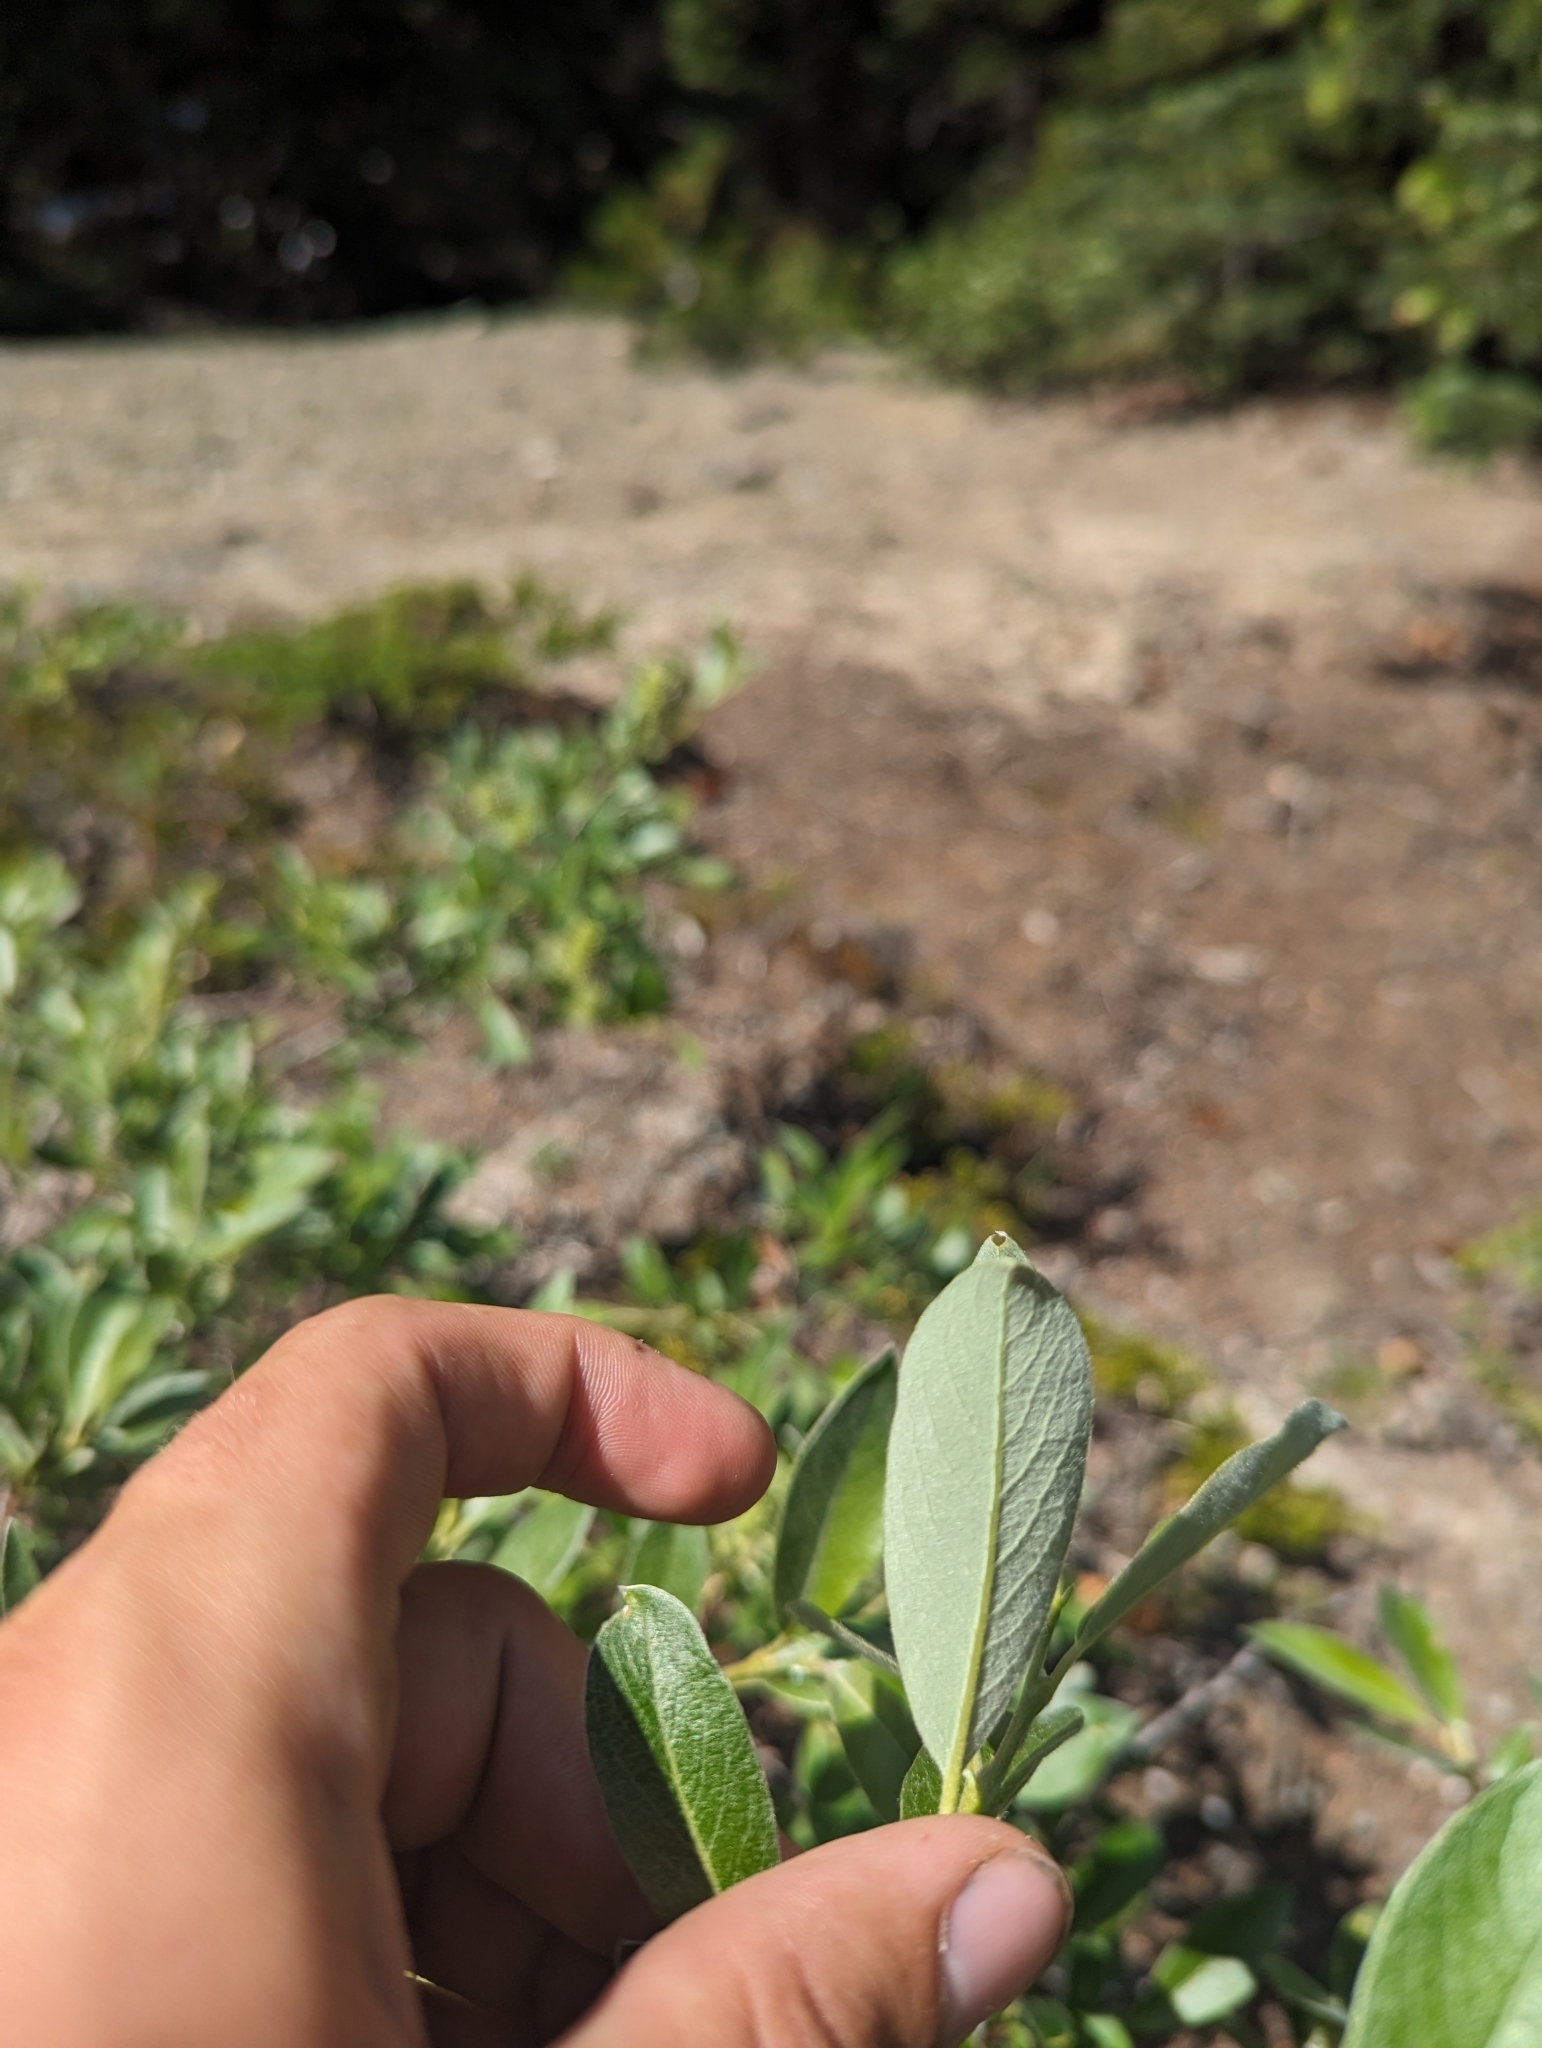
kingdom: Plantae
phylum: Tracheophyta
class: Magnoliopsida
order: Malpighiales
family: Salicaceae
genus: Salix
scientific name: Salix glauca
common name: Glaucous willow
